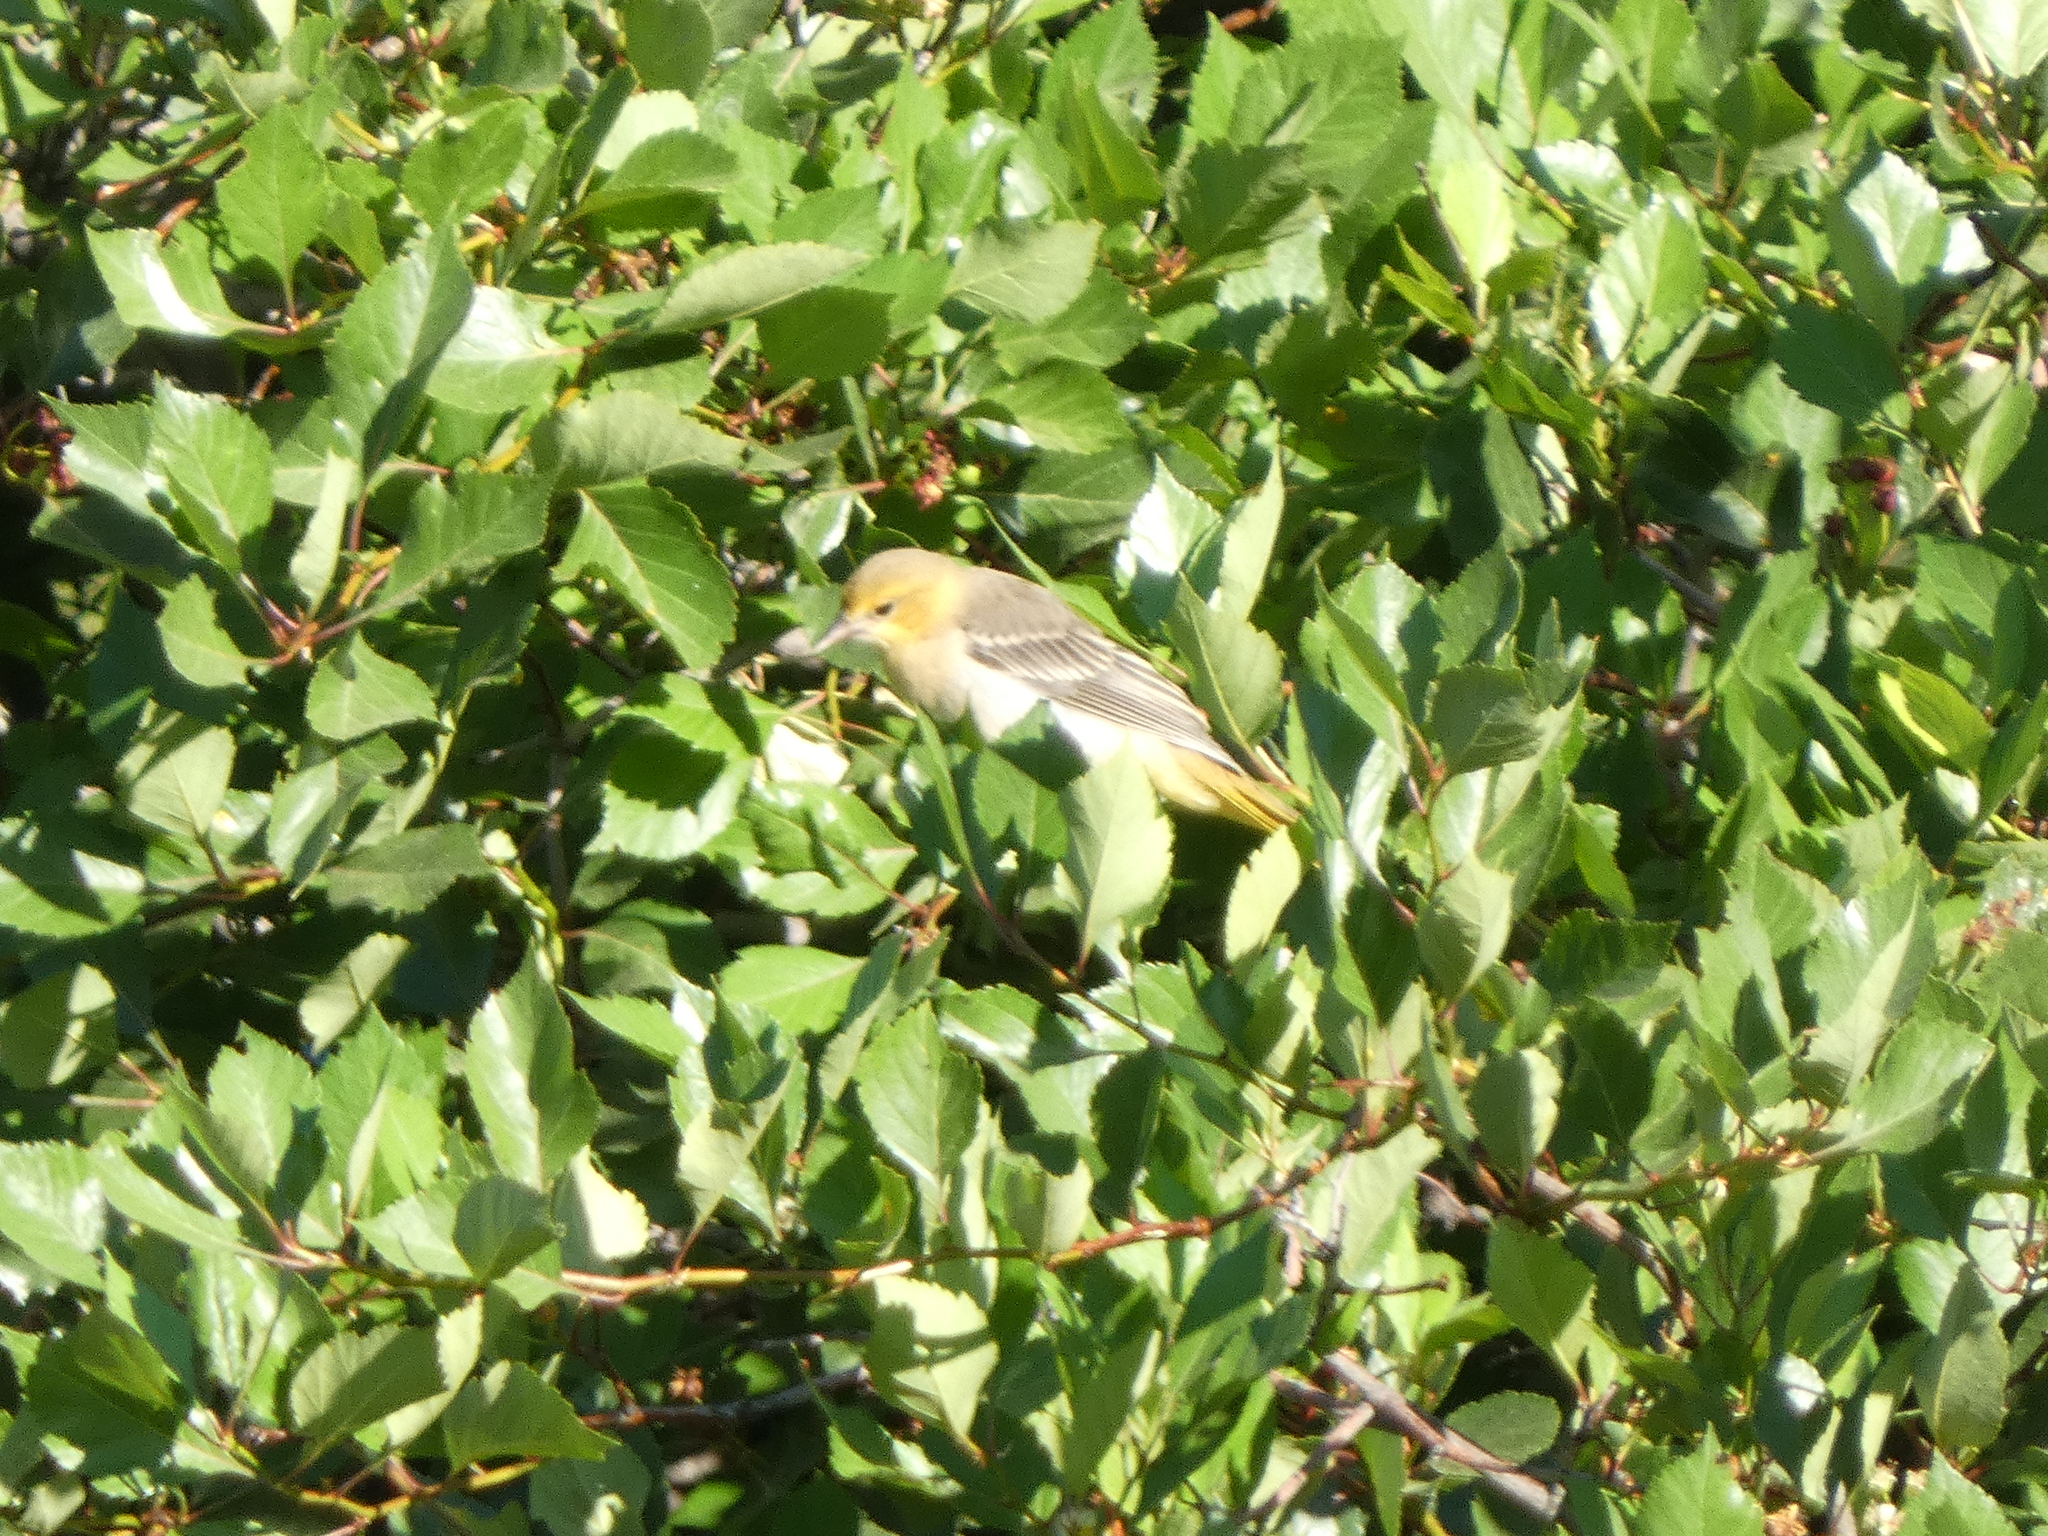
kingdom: Animalia
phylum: Chordata
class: Aves
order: Passeriformes
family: Icteridae
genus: Icterus
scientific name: Icterus bullockii
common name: Bullock's oriole
